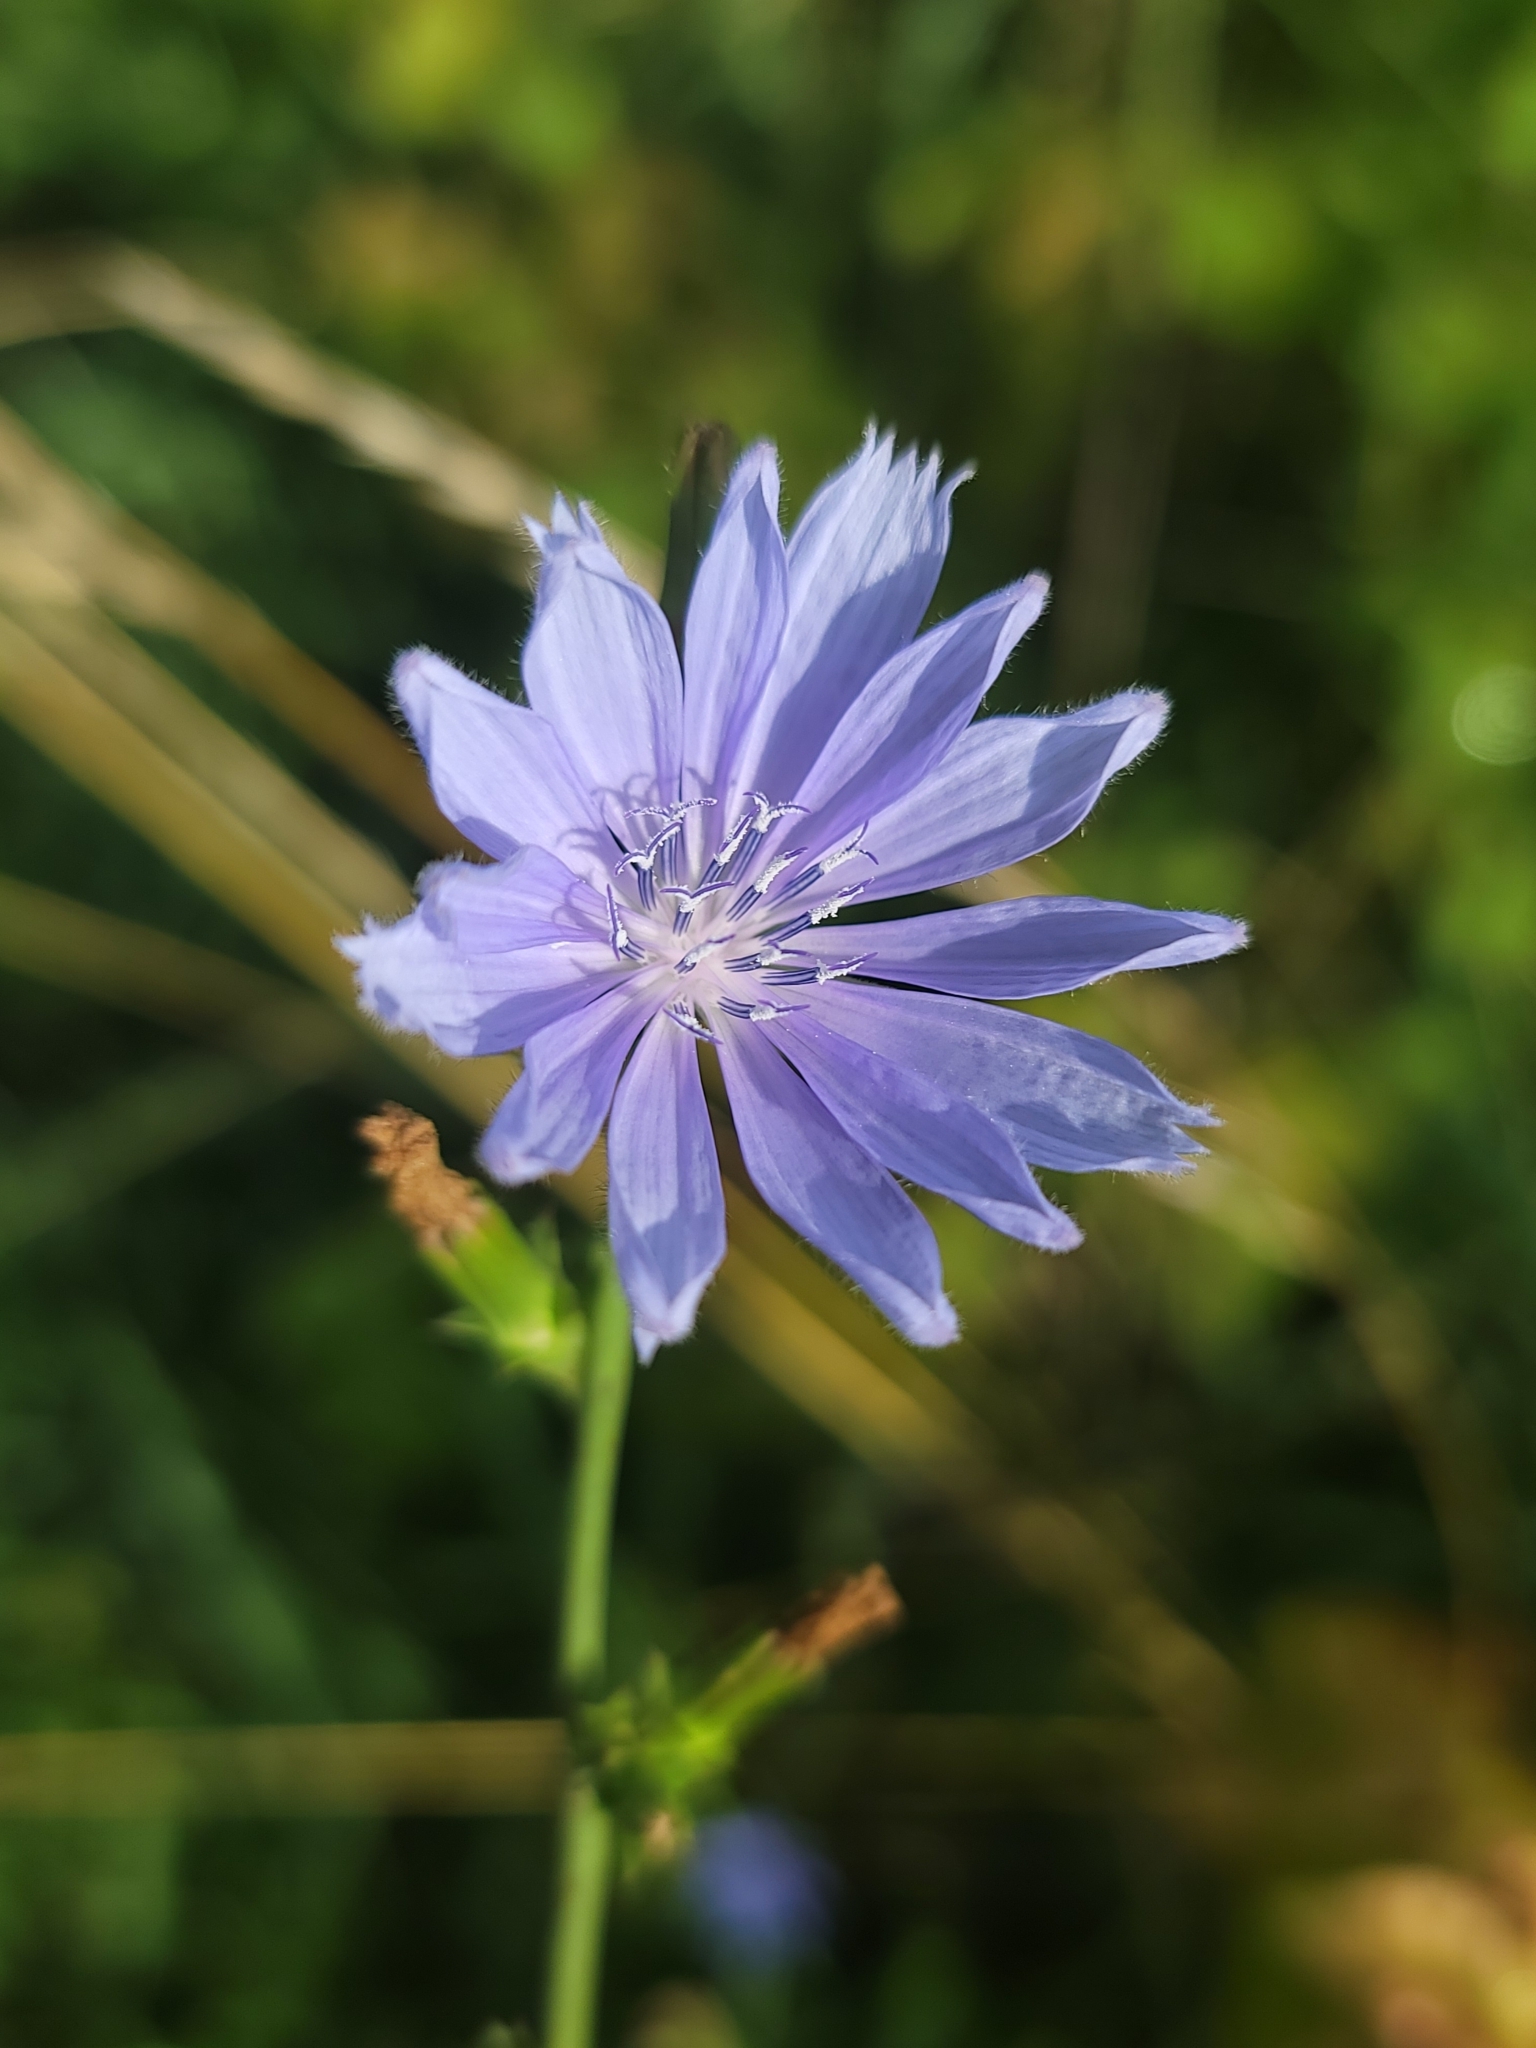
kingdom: Plantae
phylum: Tracheophyta
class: Magnoliopsida
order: Asterales
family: Asteraceae
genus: Cichorium
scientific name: Cichorium intybus
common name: Chicory
